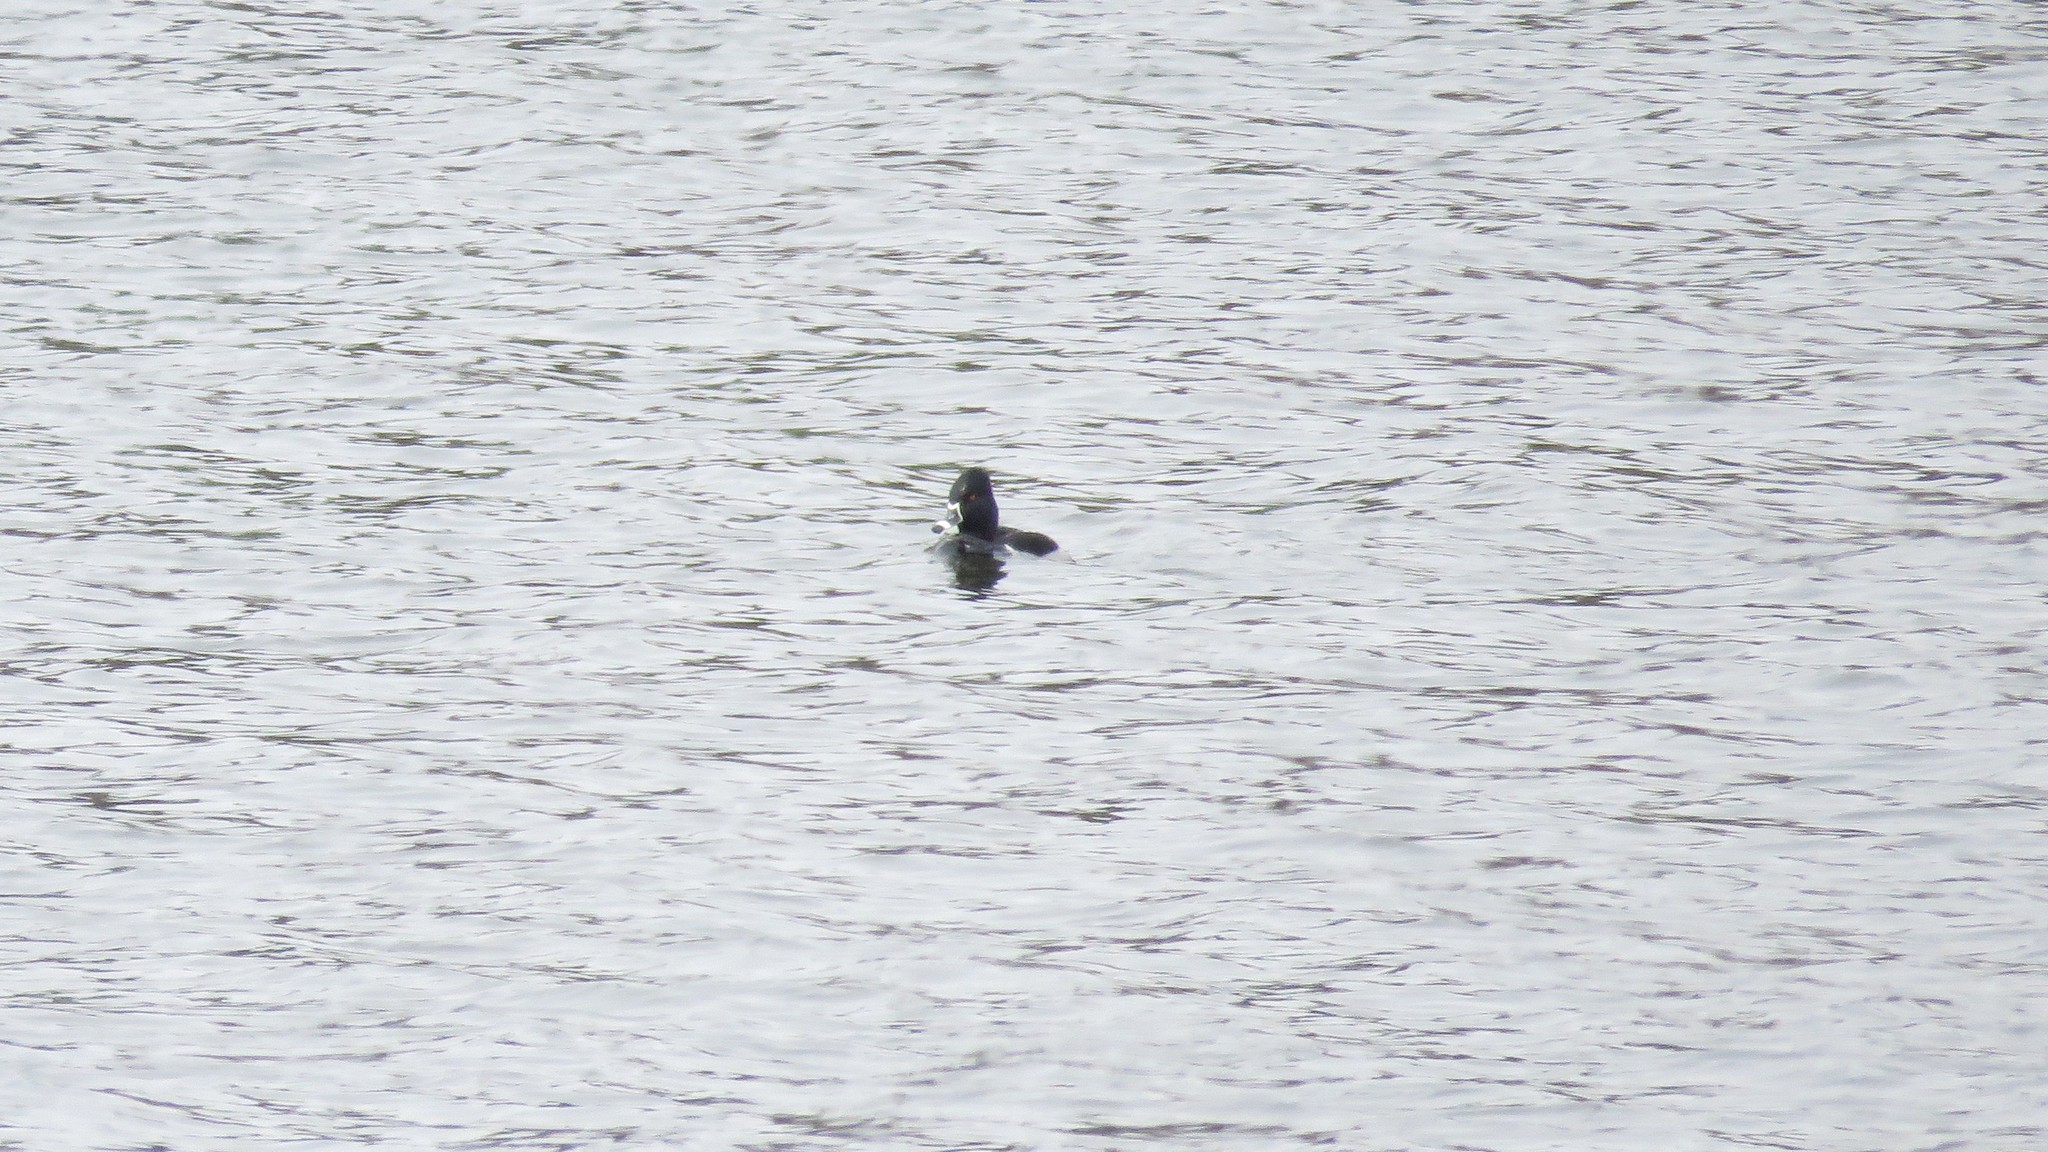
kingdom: Animalia
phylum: Chordata
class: Aves
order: Anseriformes
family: Anatidae
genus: Aythya
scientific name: Aythya collaris
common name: Ring-necked duck
